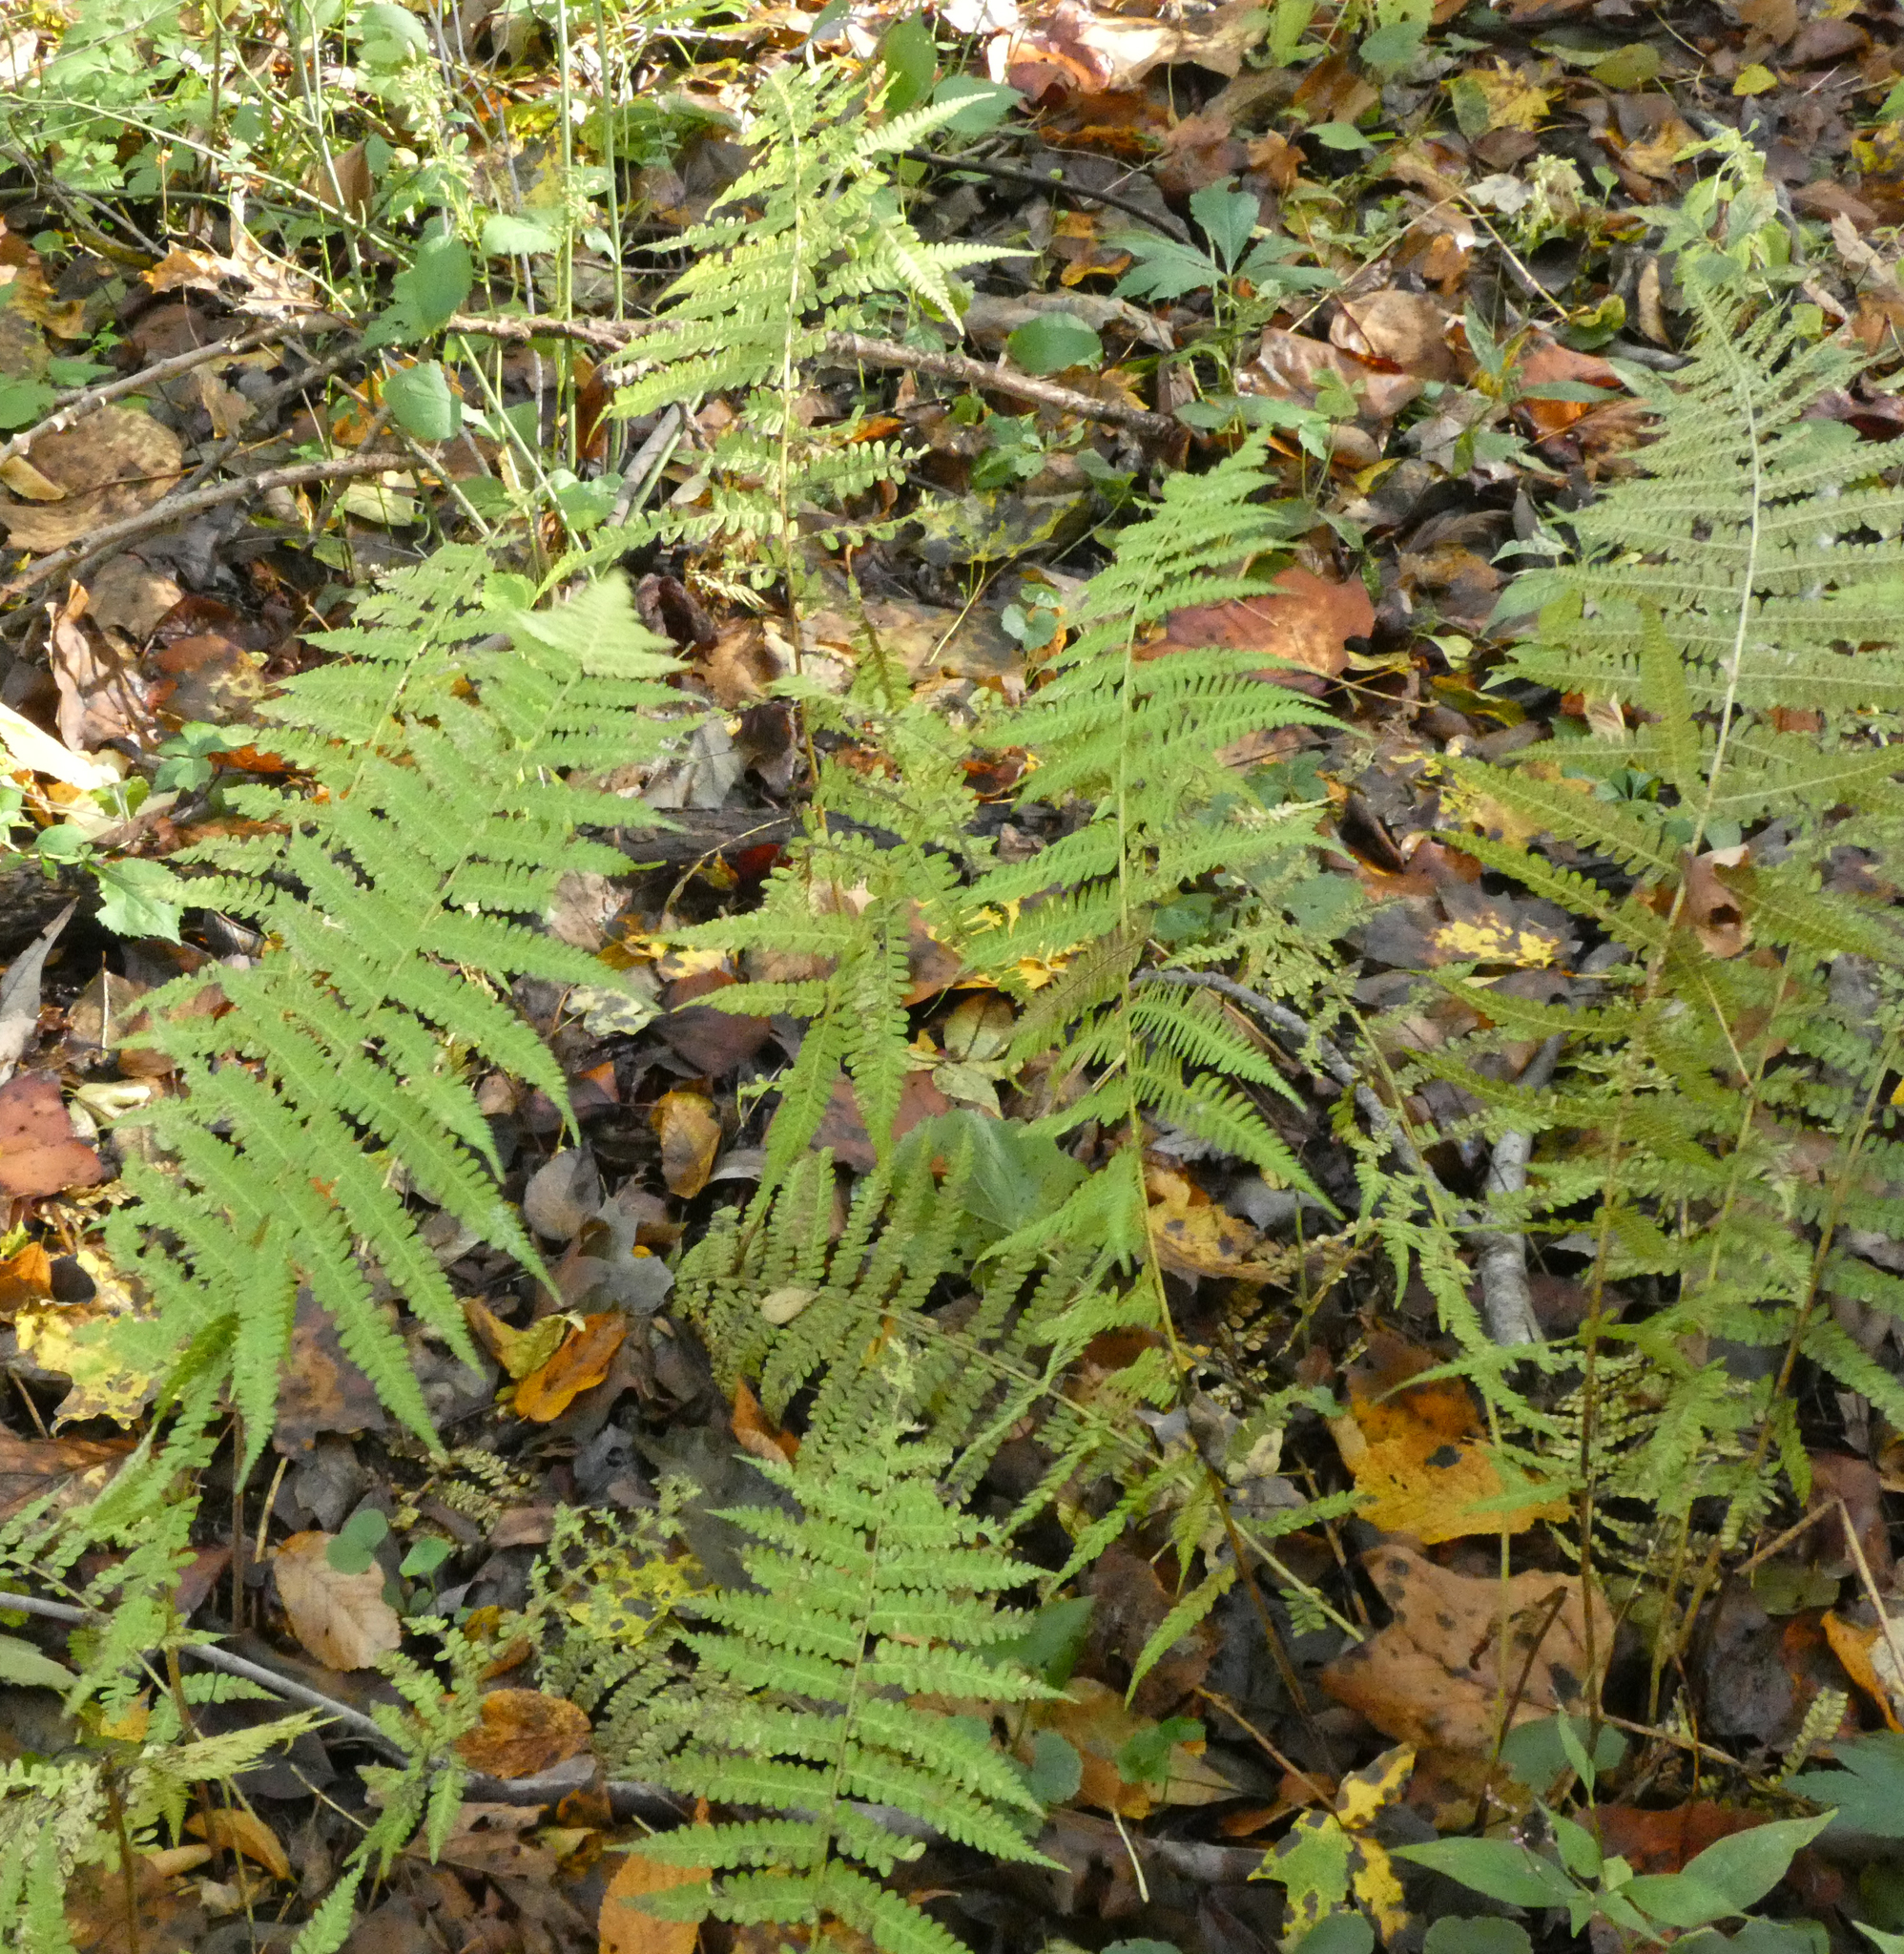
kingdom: Plantae
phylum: Tracheophyta
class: Polypodiopsida
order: Polypodiales
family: Athyriaceae
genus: Deparia
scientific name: Deparia acrostichoides
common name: Silver false spleenwort
